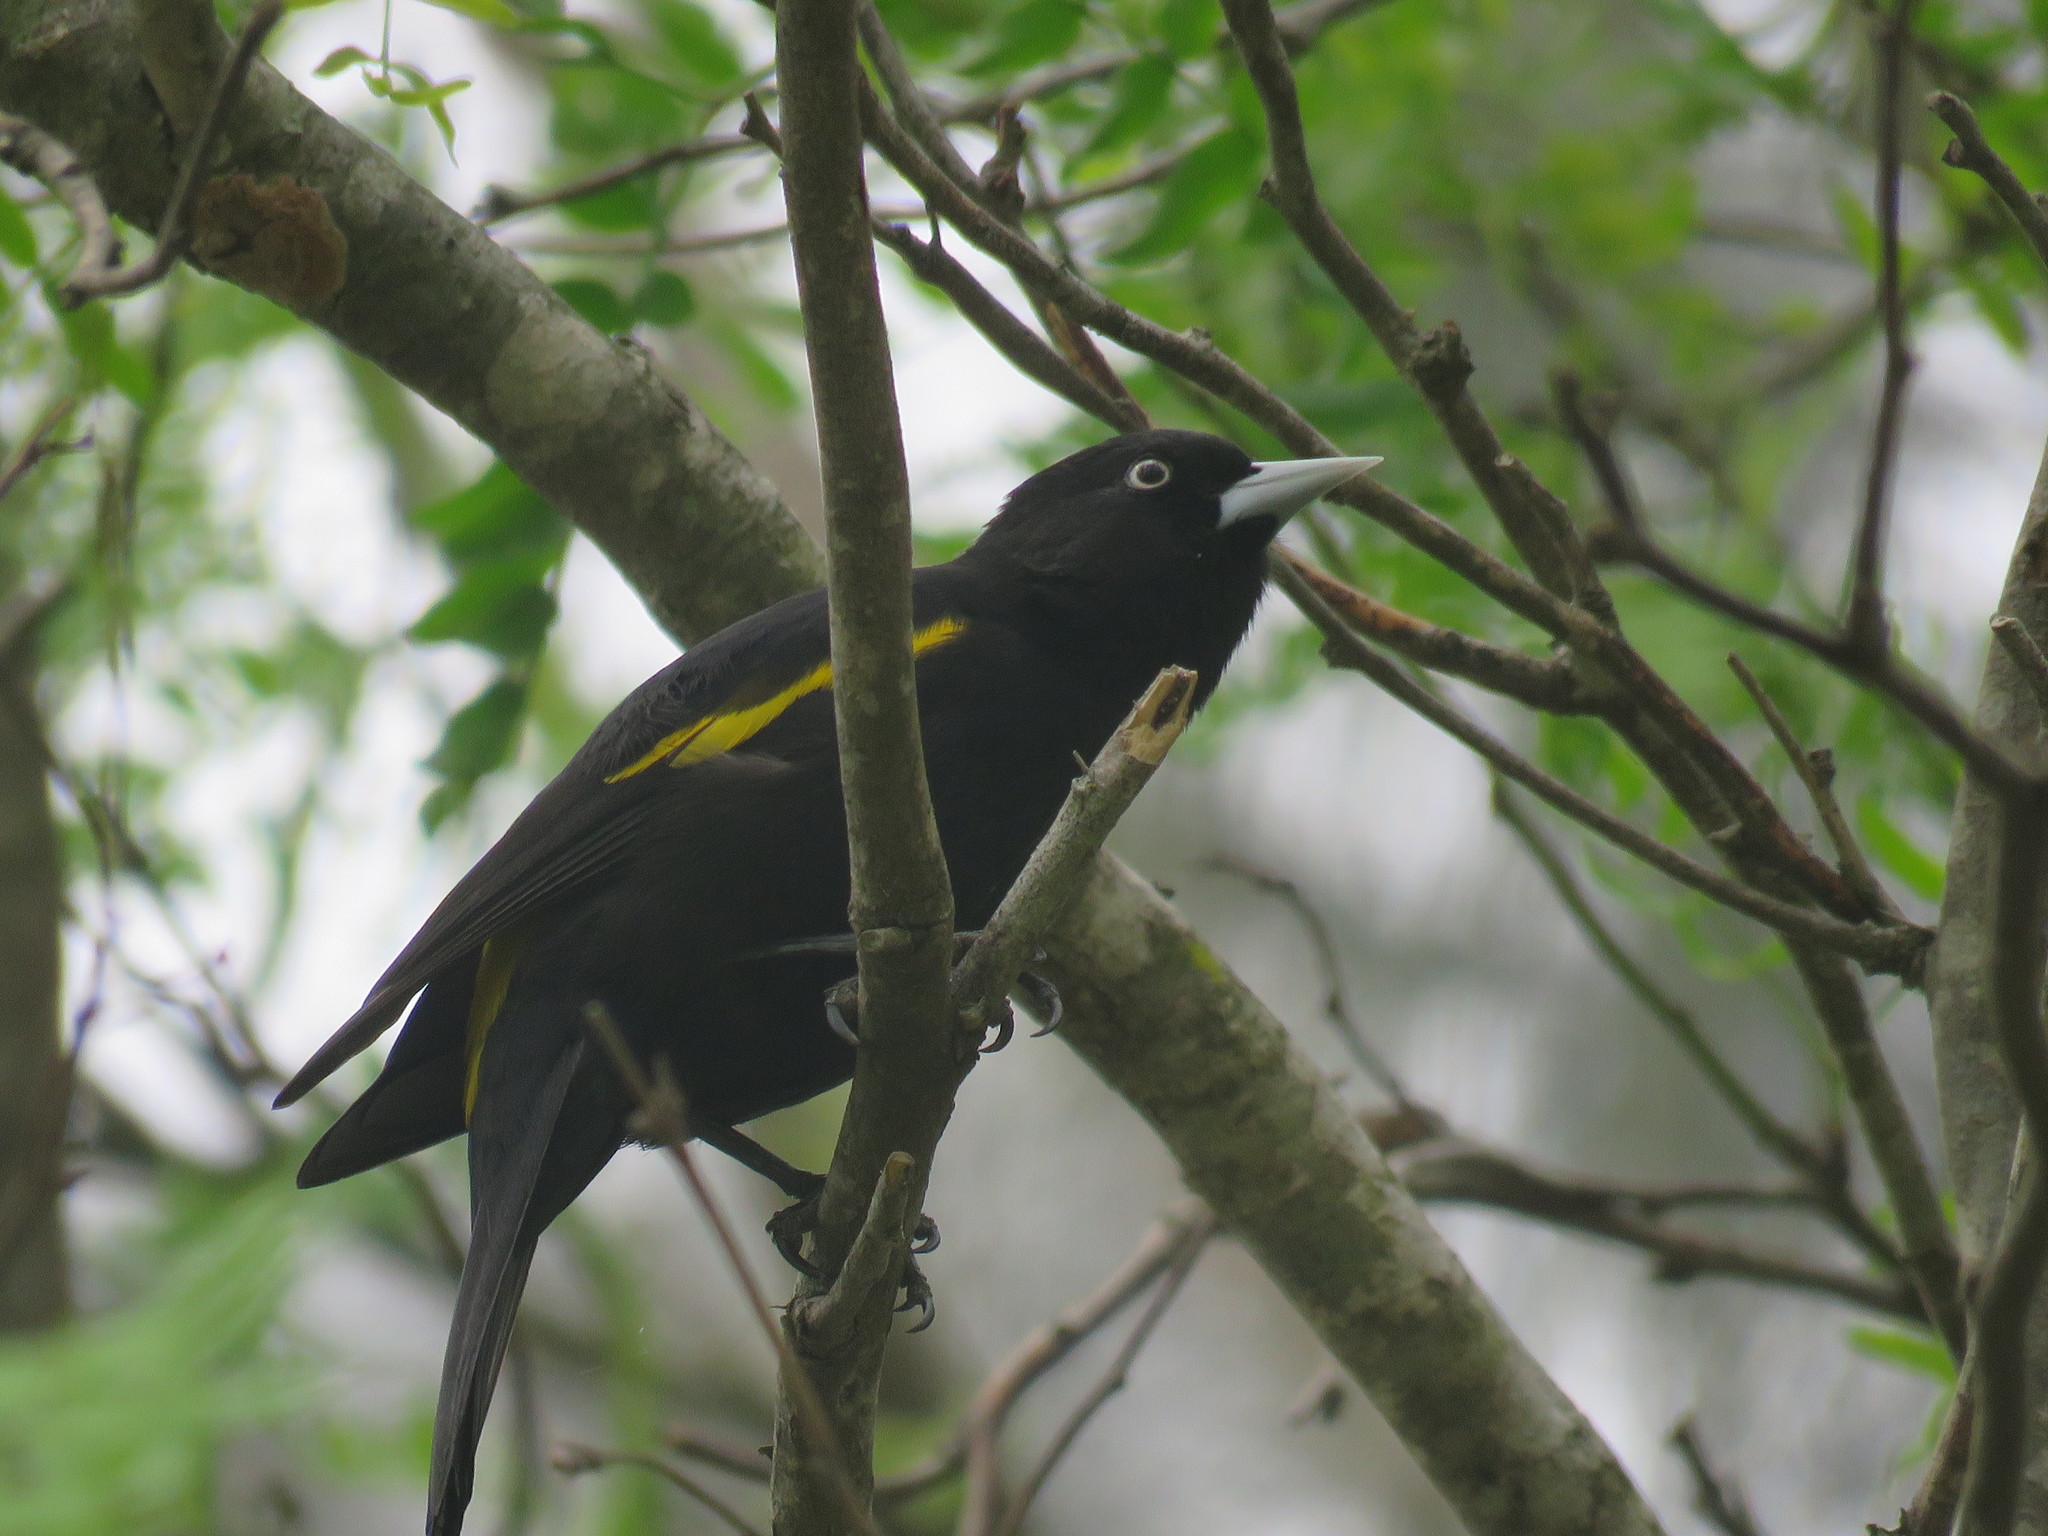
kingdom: Animalia
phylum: Chordata
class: Aves
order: Passeriformes
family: Icteridae
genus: Cacicus
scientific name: Cacicus chrysopterus
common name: Golden-winged cacique
